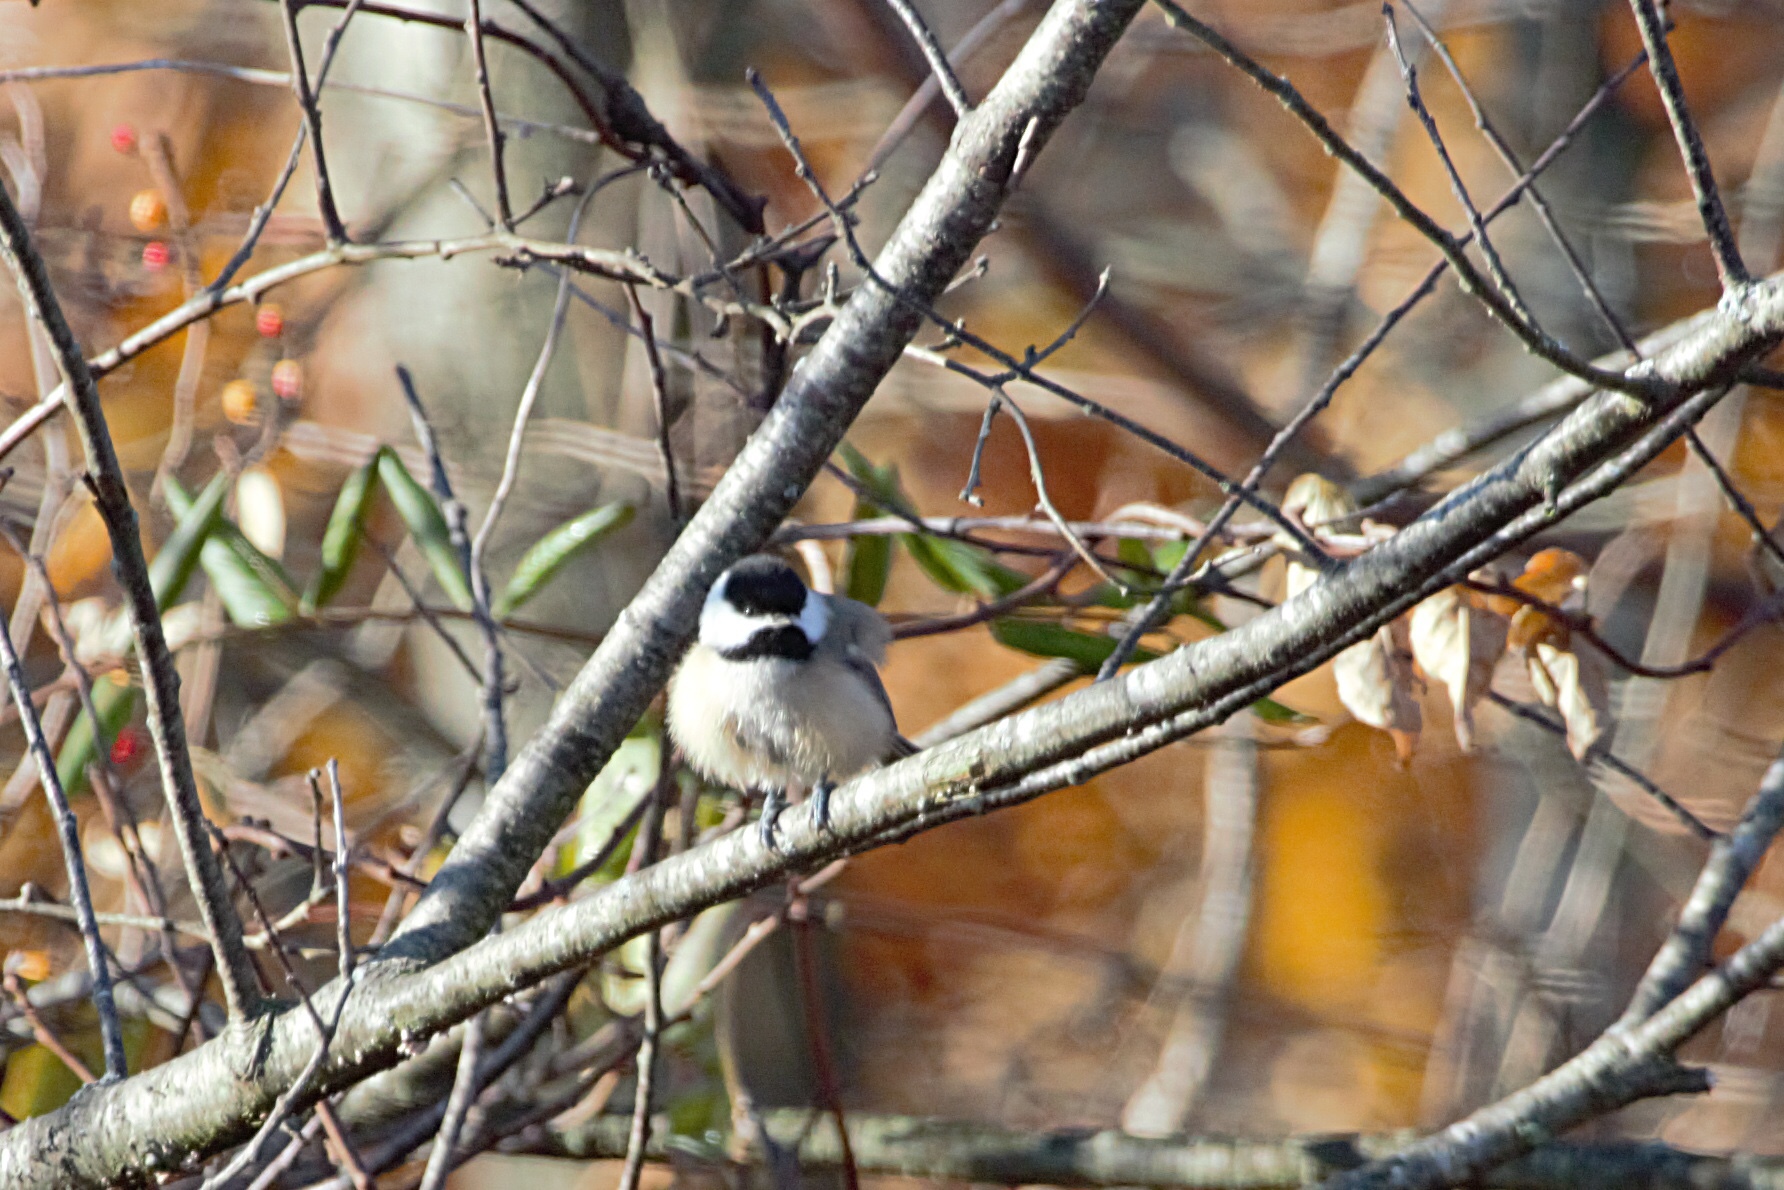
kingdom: Animalia
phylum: Chordata
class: Aves
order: Passeriformes
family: Paridae
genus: Poecile
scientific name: Poecile atricapillus
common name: Black-capped chickadee
